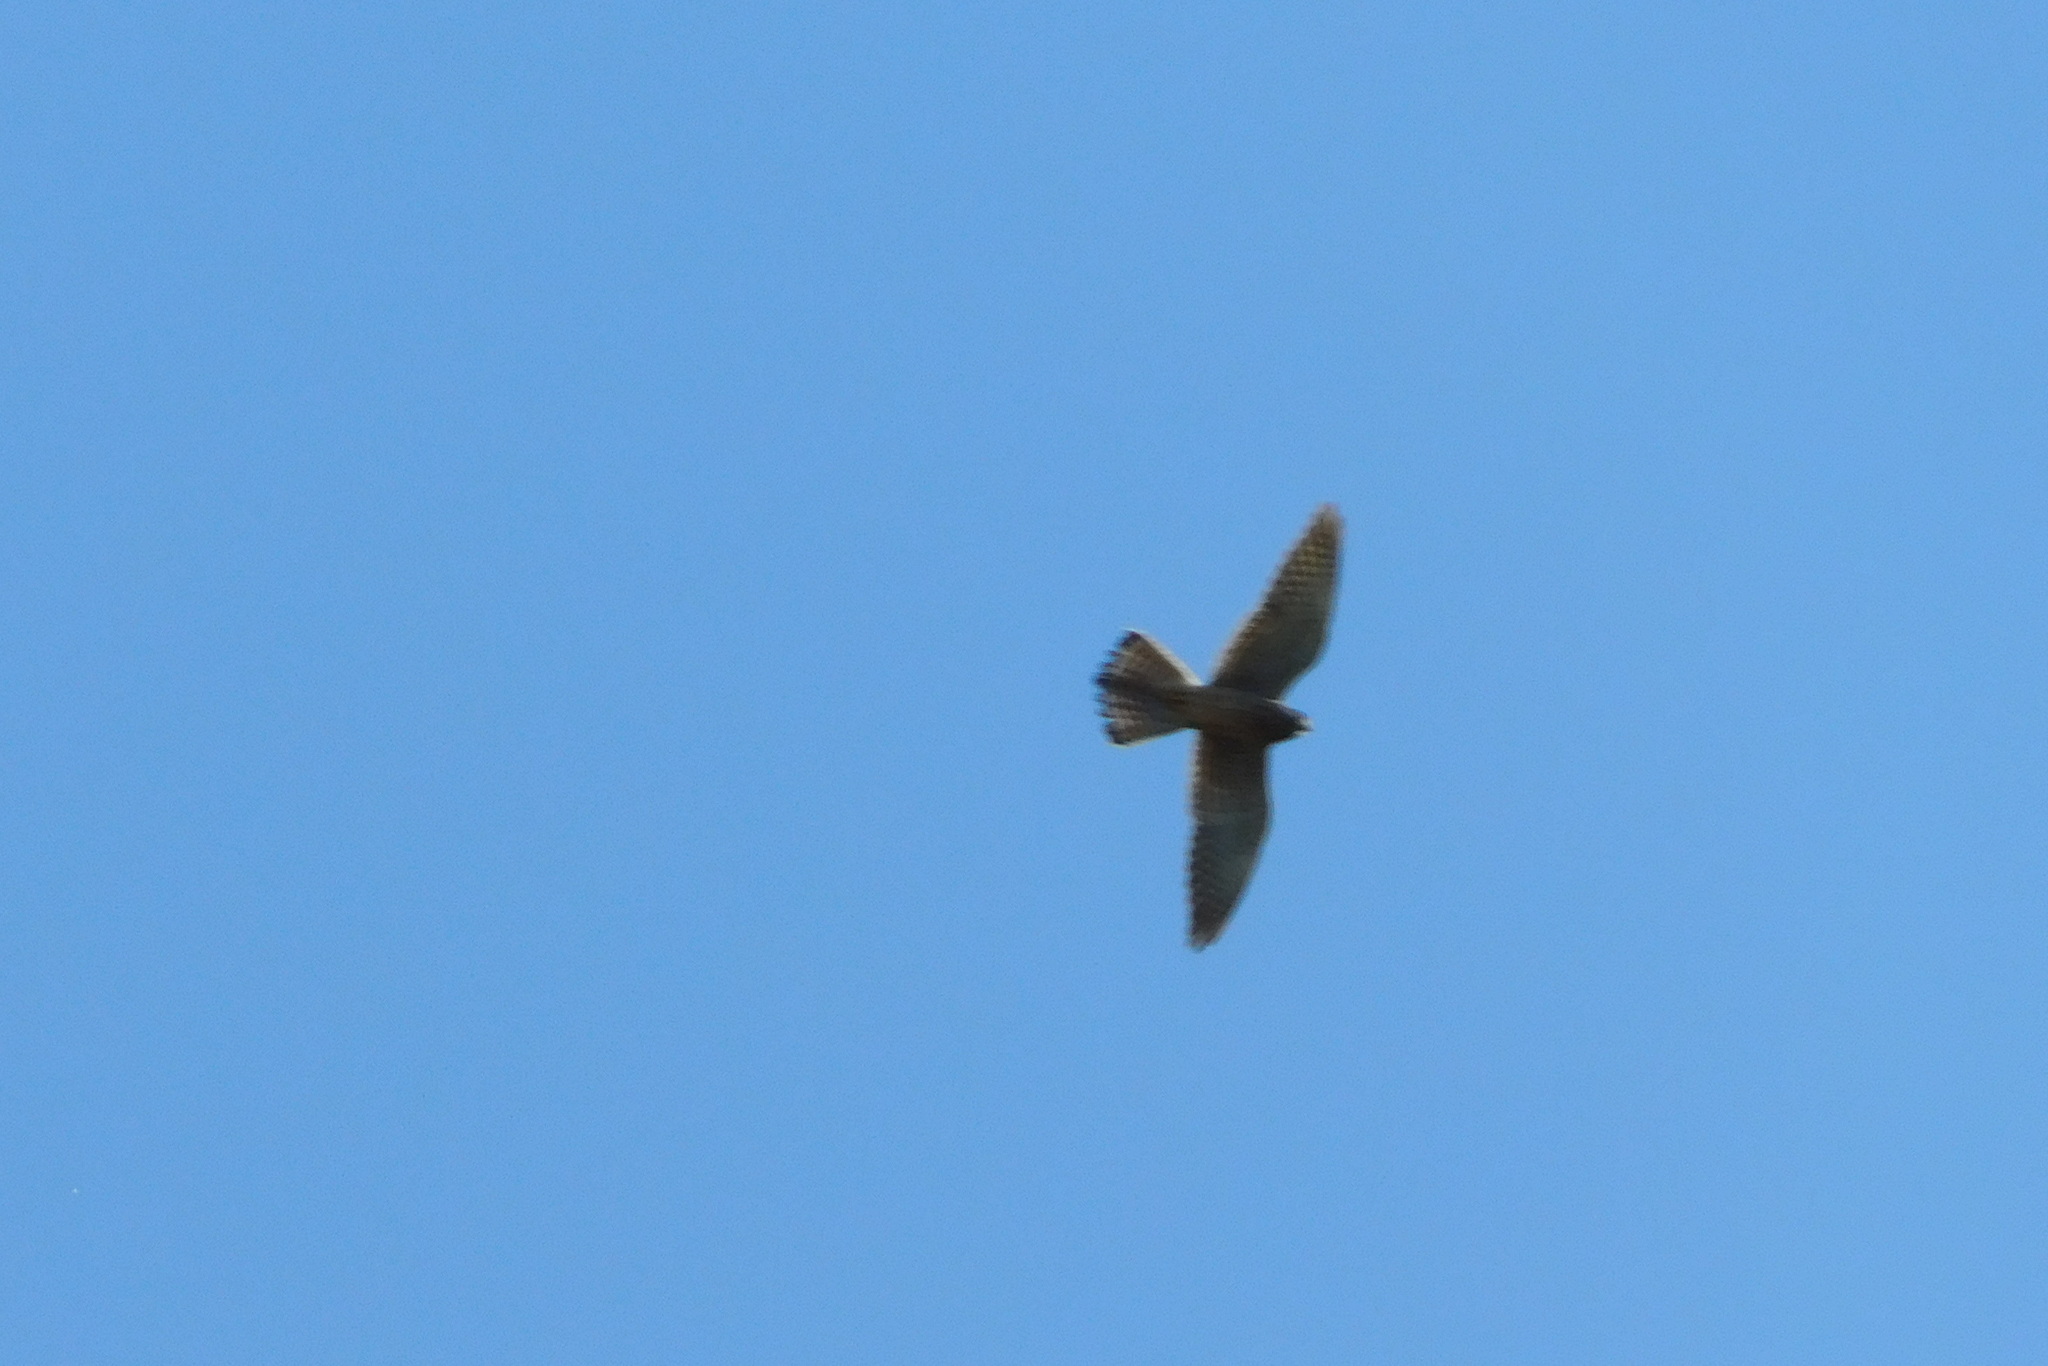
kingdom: Animalia
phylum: Chordata
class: Aves
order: Falconiformes
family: Falconidae
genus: Falco
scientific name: Falco tinnunculus
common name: Common kestrel
